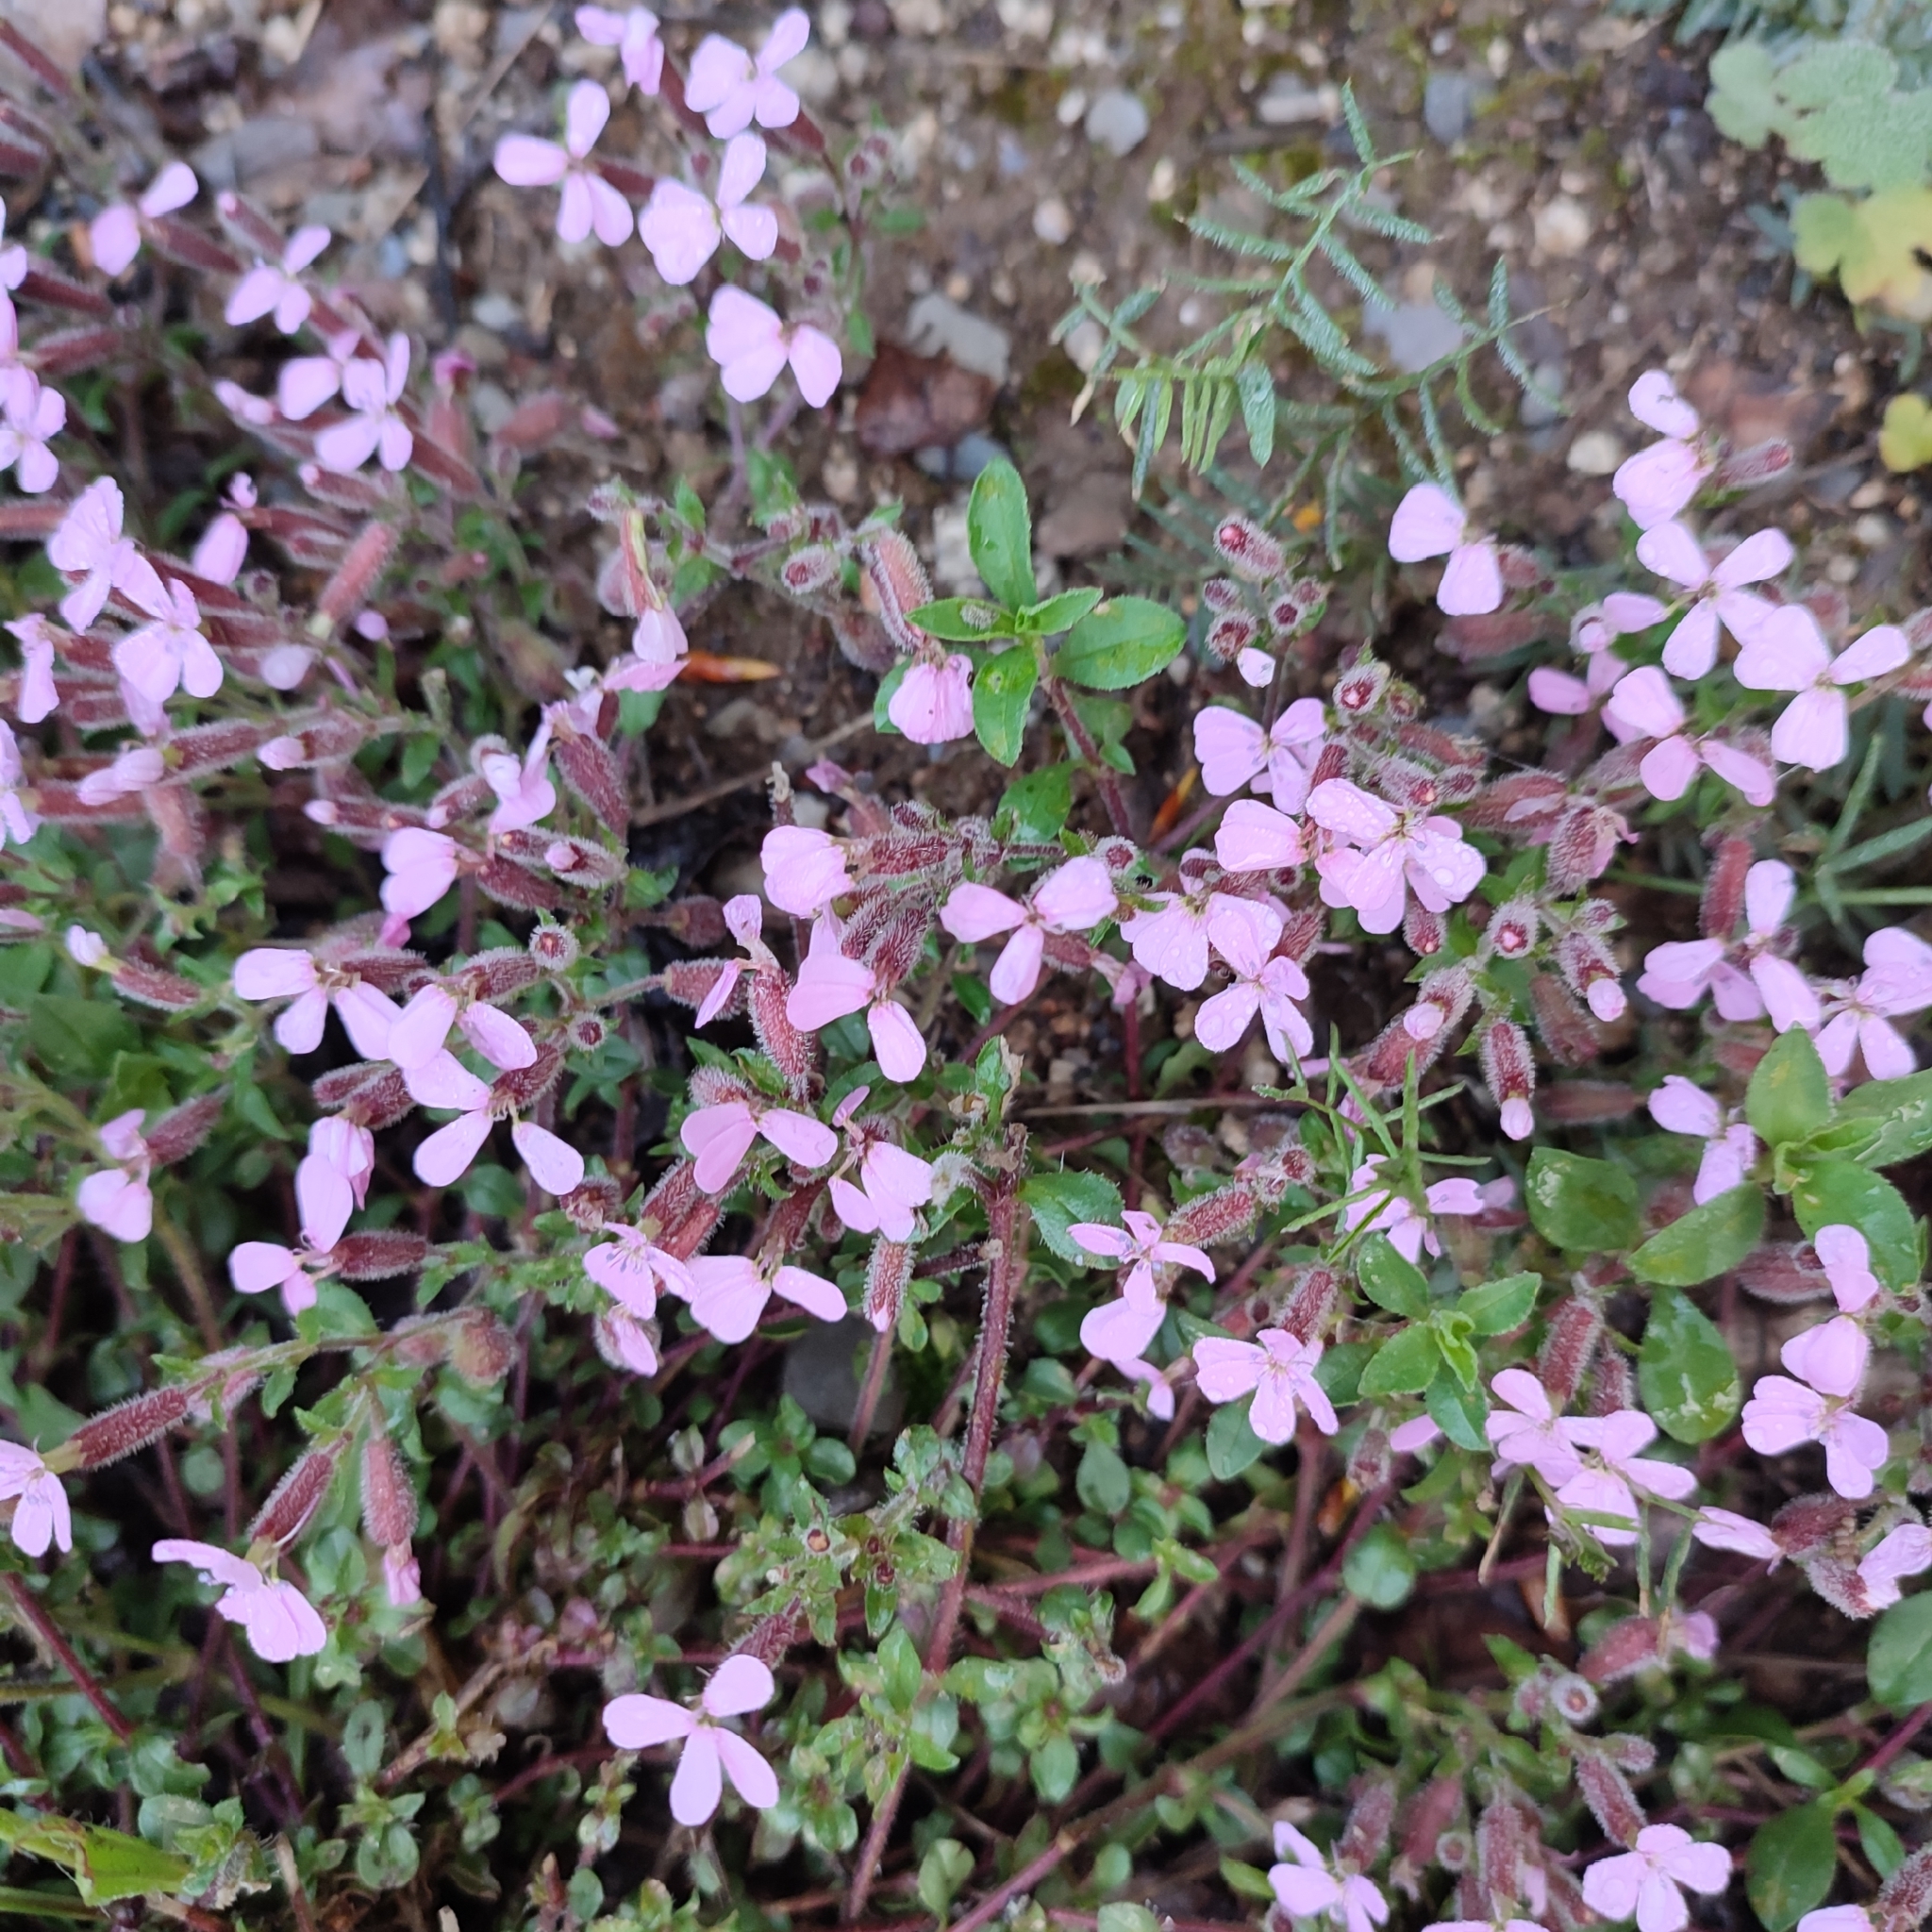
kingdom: Plantae
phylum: Tracheophyta
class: Magnoliopsida
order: Caryophyllales
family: Caryophyllaceae
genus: Saponaria
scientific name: Saponaria ocymoides
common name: Rock soapwort
